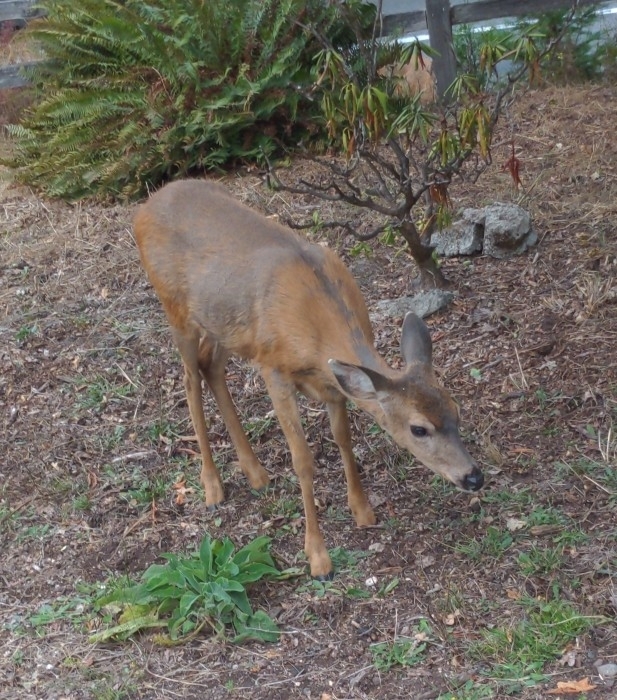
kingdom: Animalia
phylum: Chordata
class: Mammalia
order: Artiodactyla
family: Cervidae
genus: Odocoileus
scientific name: Odocoileus hemionus
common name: Mule deer
